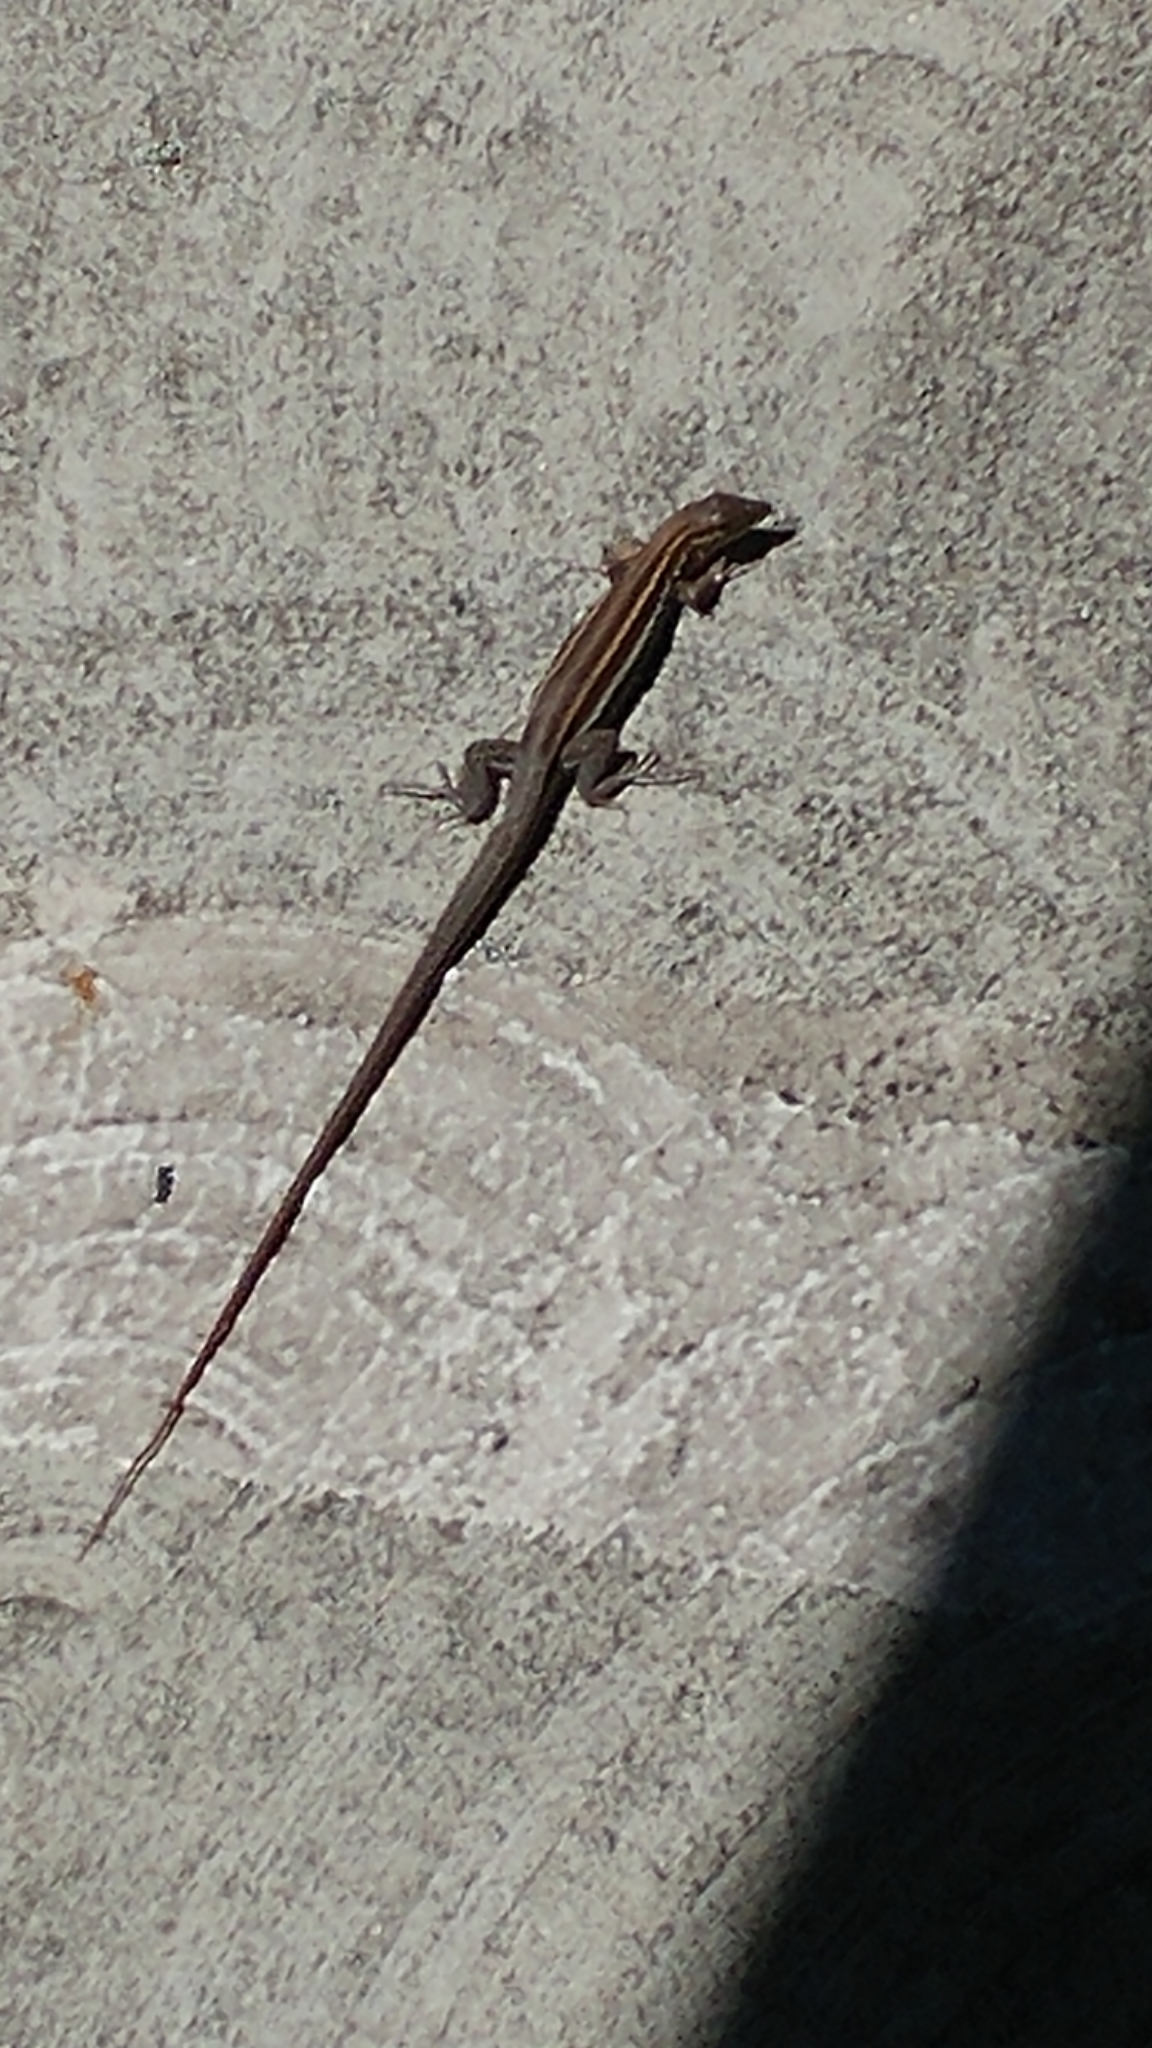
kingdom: Animalia
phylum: Chordata
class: Squamata
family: Teiidae
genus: Aspidoscelis
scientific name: Aspidoscelis hyperythrus
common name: Orange-throated race-runner
